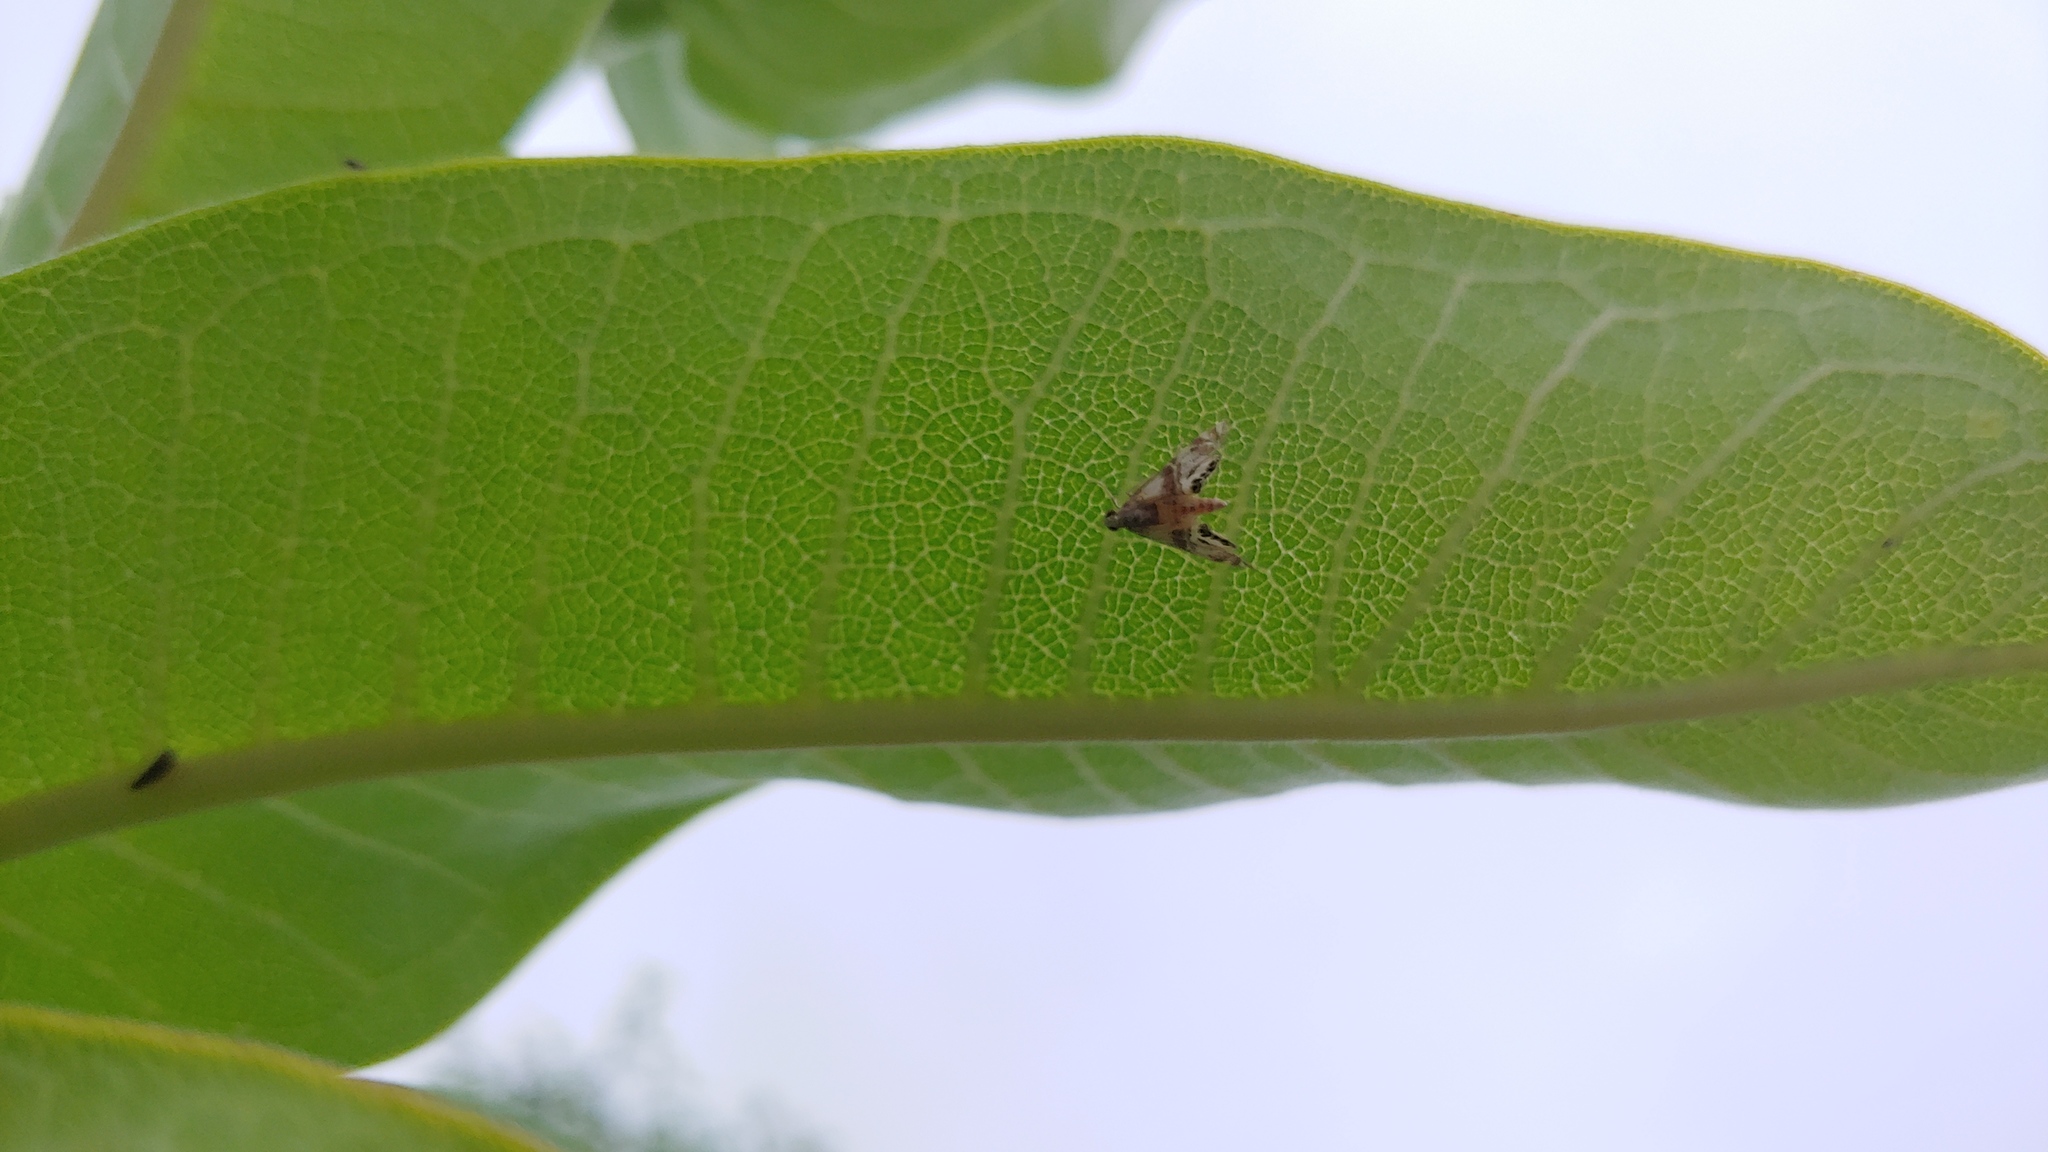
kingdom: Animalia
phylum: Arthropoda
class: Insecta
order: Lepidoptera
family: Crambidae
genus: Petrophila
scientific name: Petrophila bifascialis
